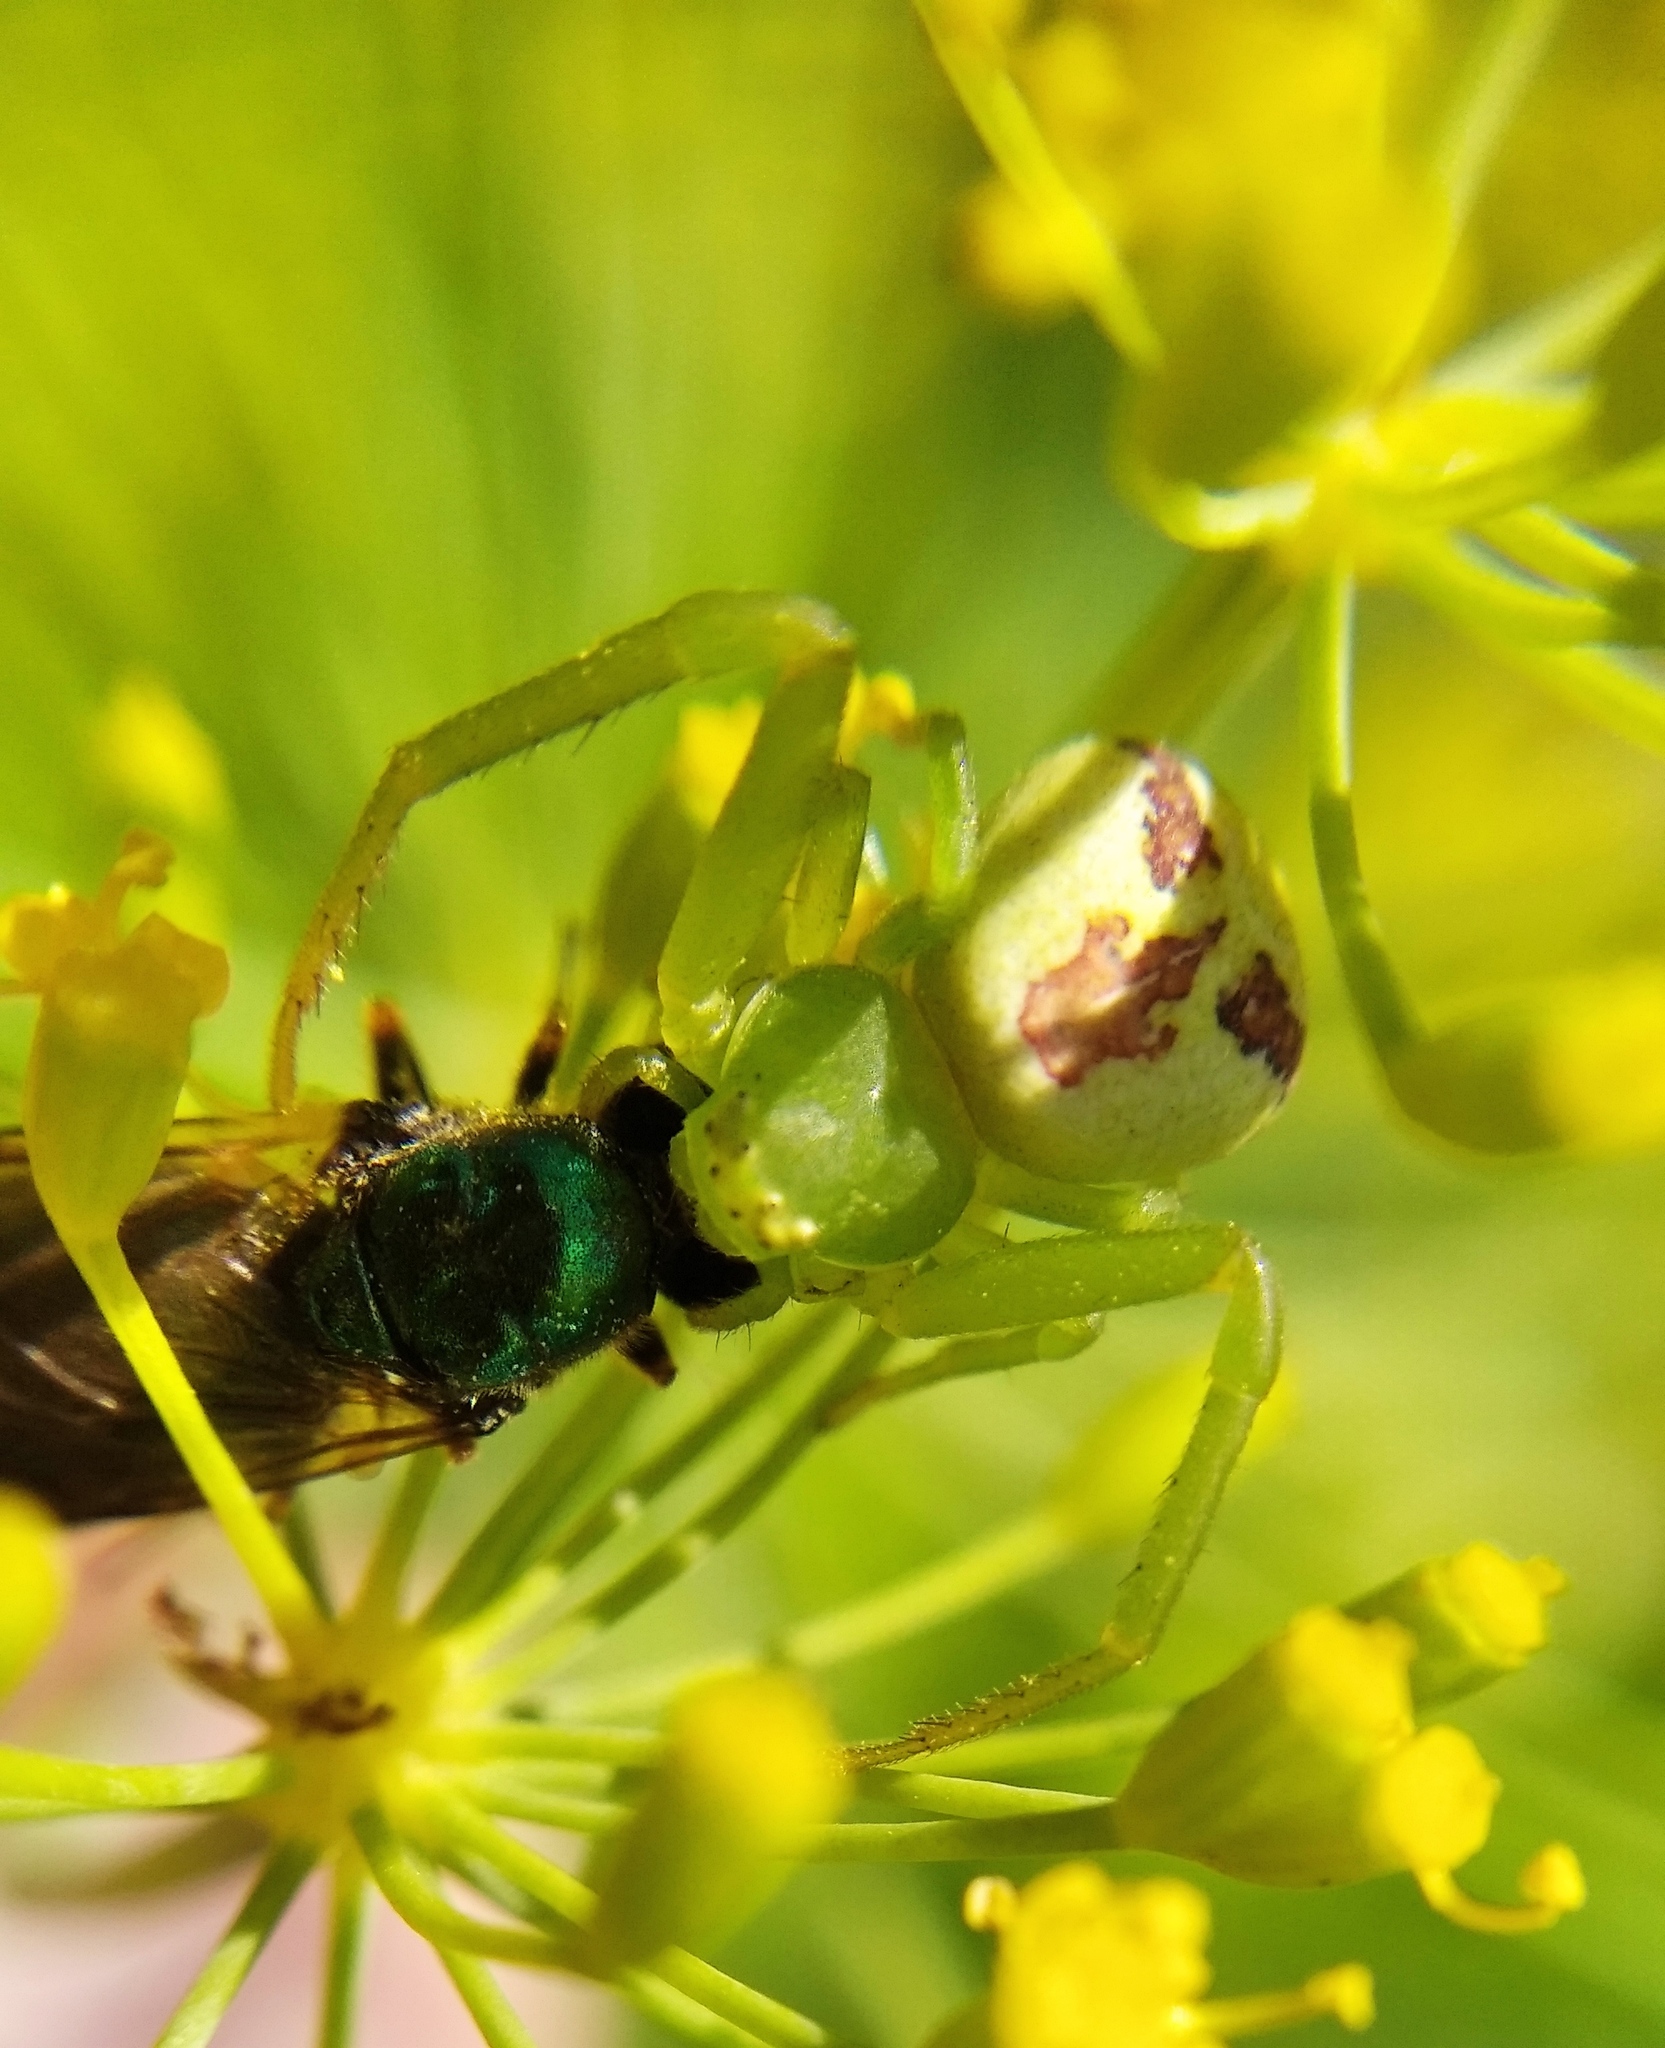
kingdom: Animalia
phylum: Arthropoda
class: Arachnida
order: Araneae
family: Thomisidae
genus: Ebrechtella
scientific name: Ebrechtella tricuspidata
